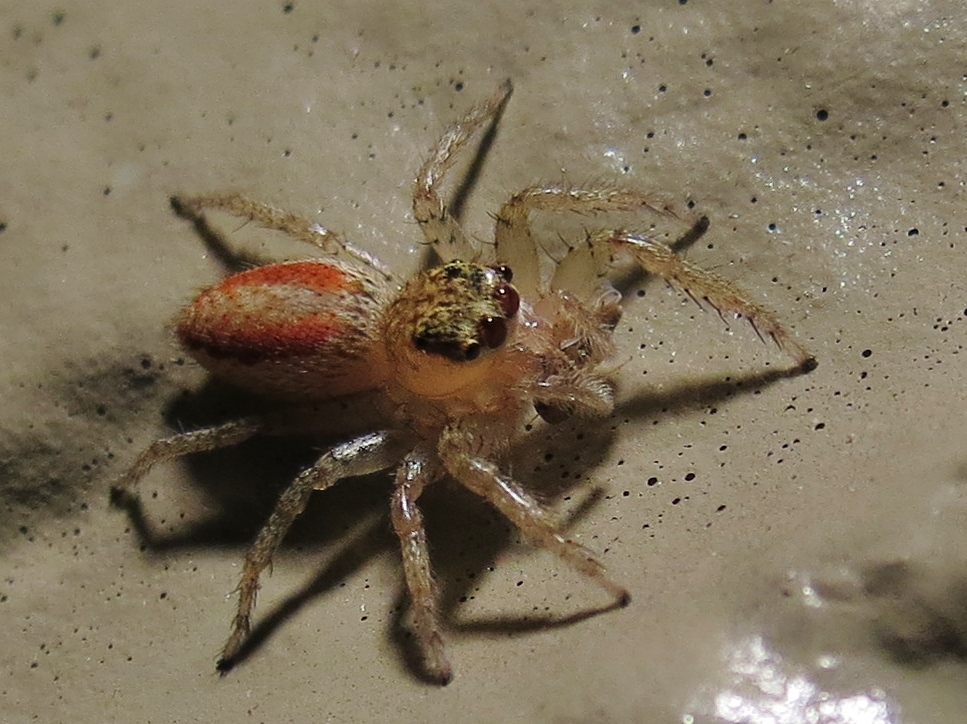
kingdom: Animalia
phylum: Arthropoda
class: Arachnida
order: Araneae
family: Salticidae
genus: Maevia
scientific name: Maevia inclemens
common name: Dimorphic jumper
